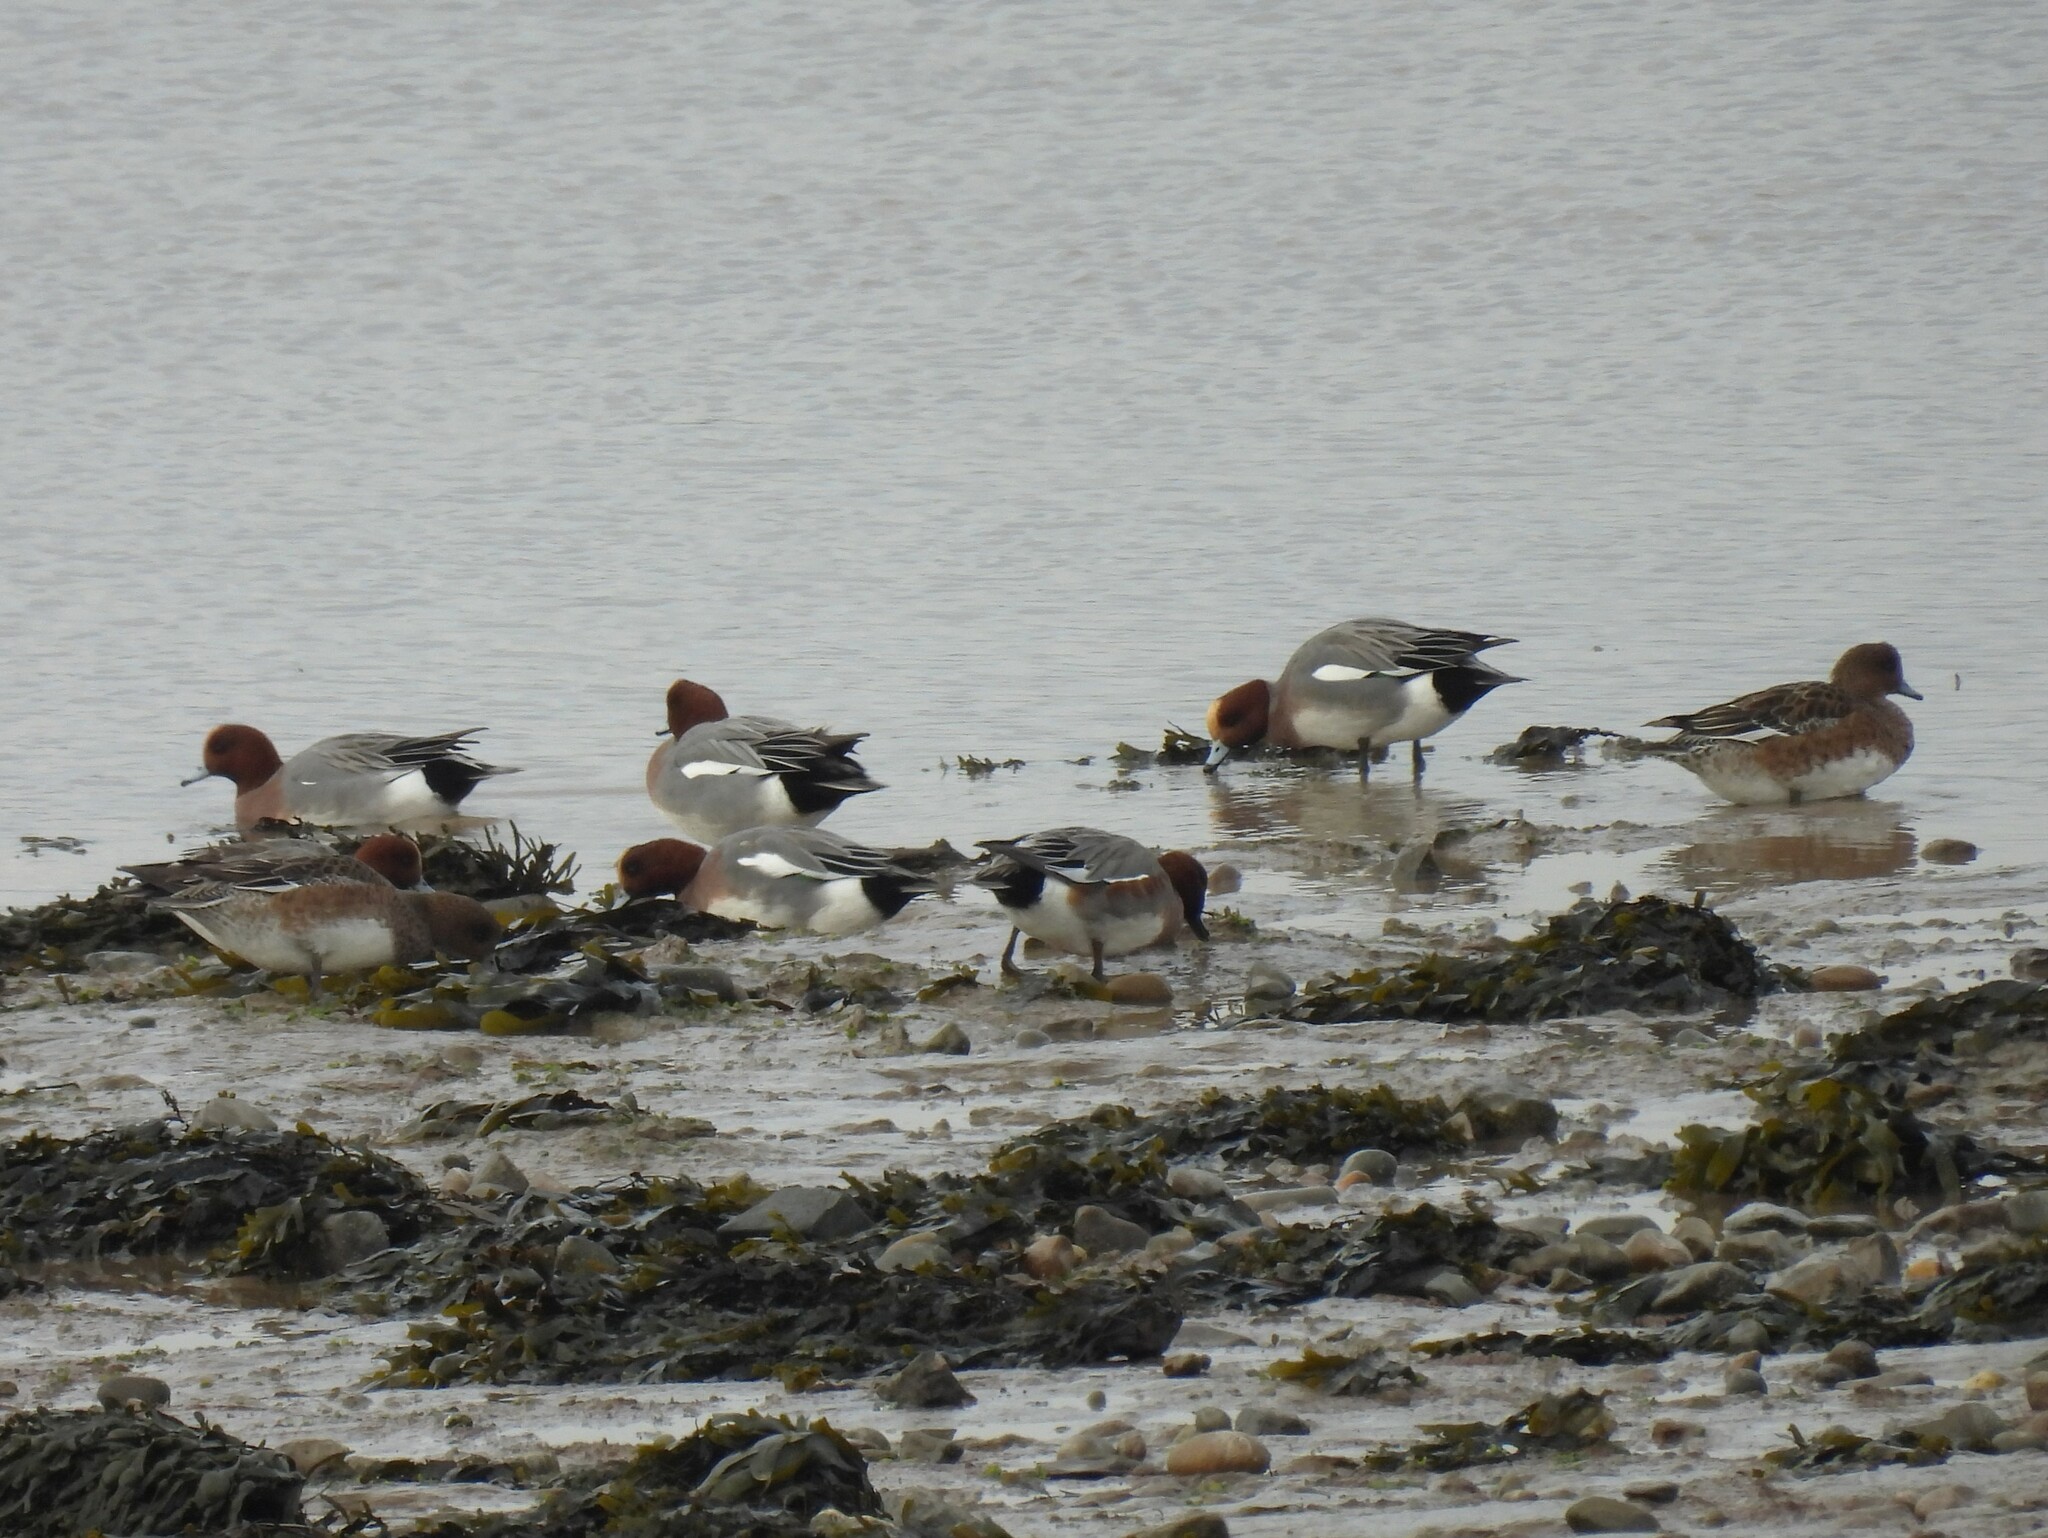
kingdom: Animalia
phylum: Chordata
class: Aves
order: Anseriformes
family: Anatidae
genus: Mareca
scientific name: Mareca penelope
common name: Eurasian wigeon
